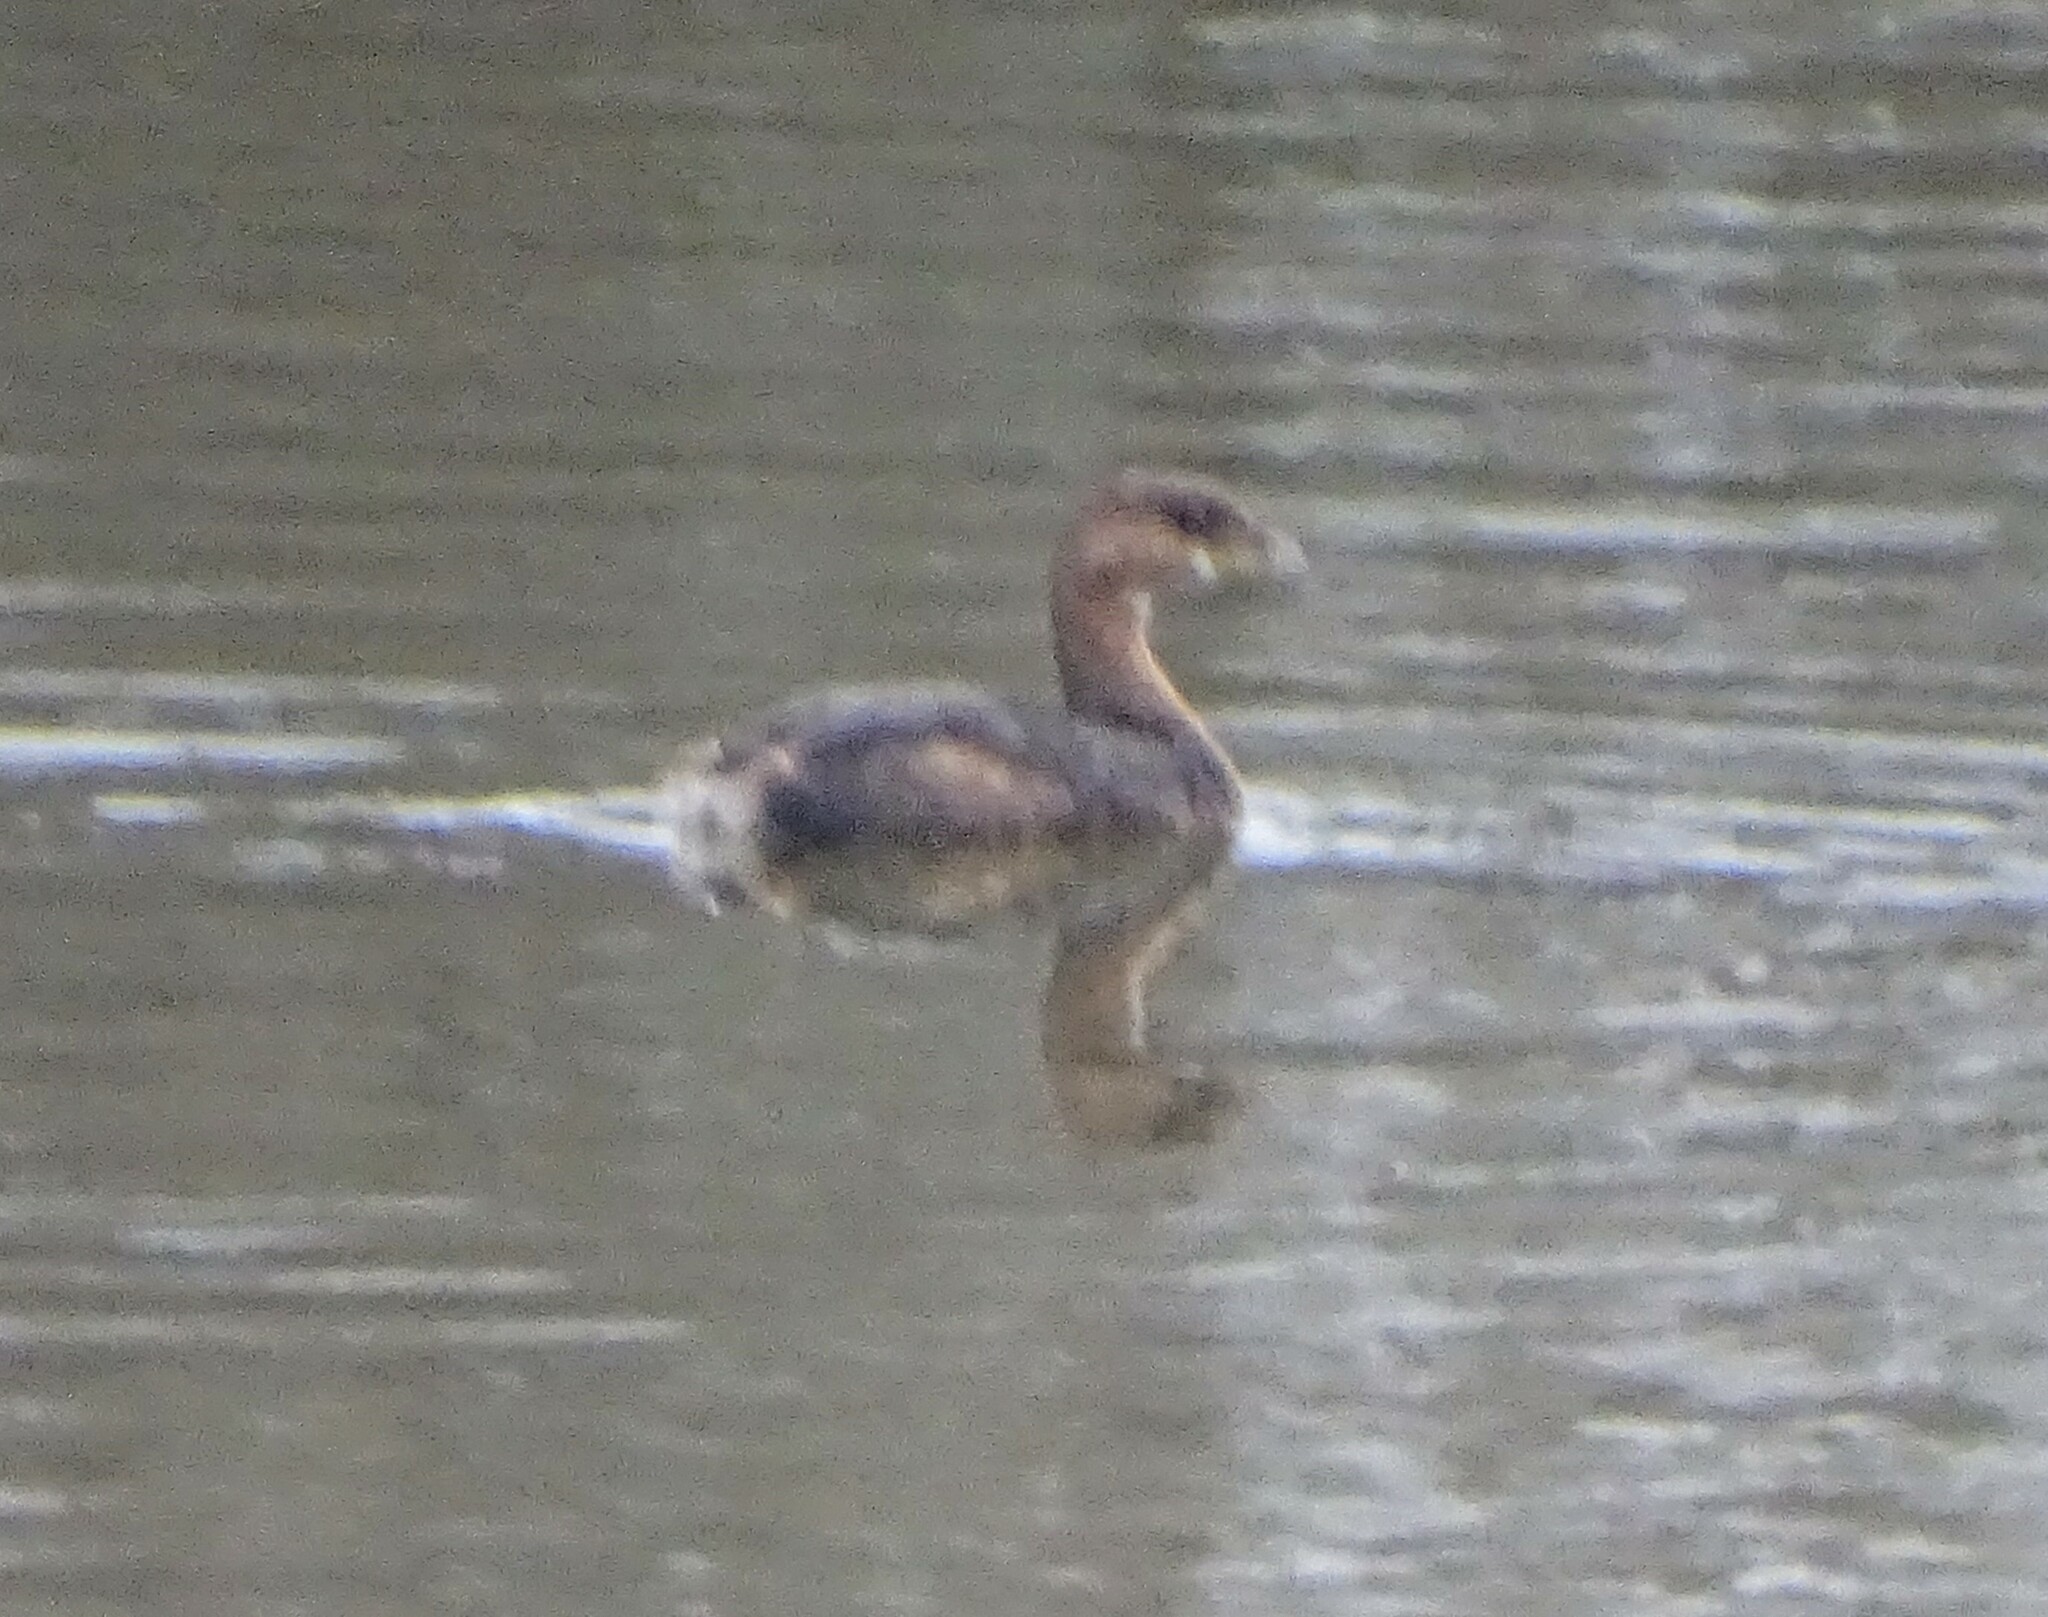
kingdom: Animalia
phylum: Chordata
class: Aves
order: Podicipediformes
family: Podicipedidae
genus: Podilymbus
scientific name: Podilymbus podiceps
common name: Pied-billed grebe
